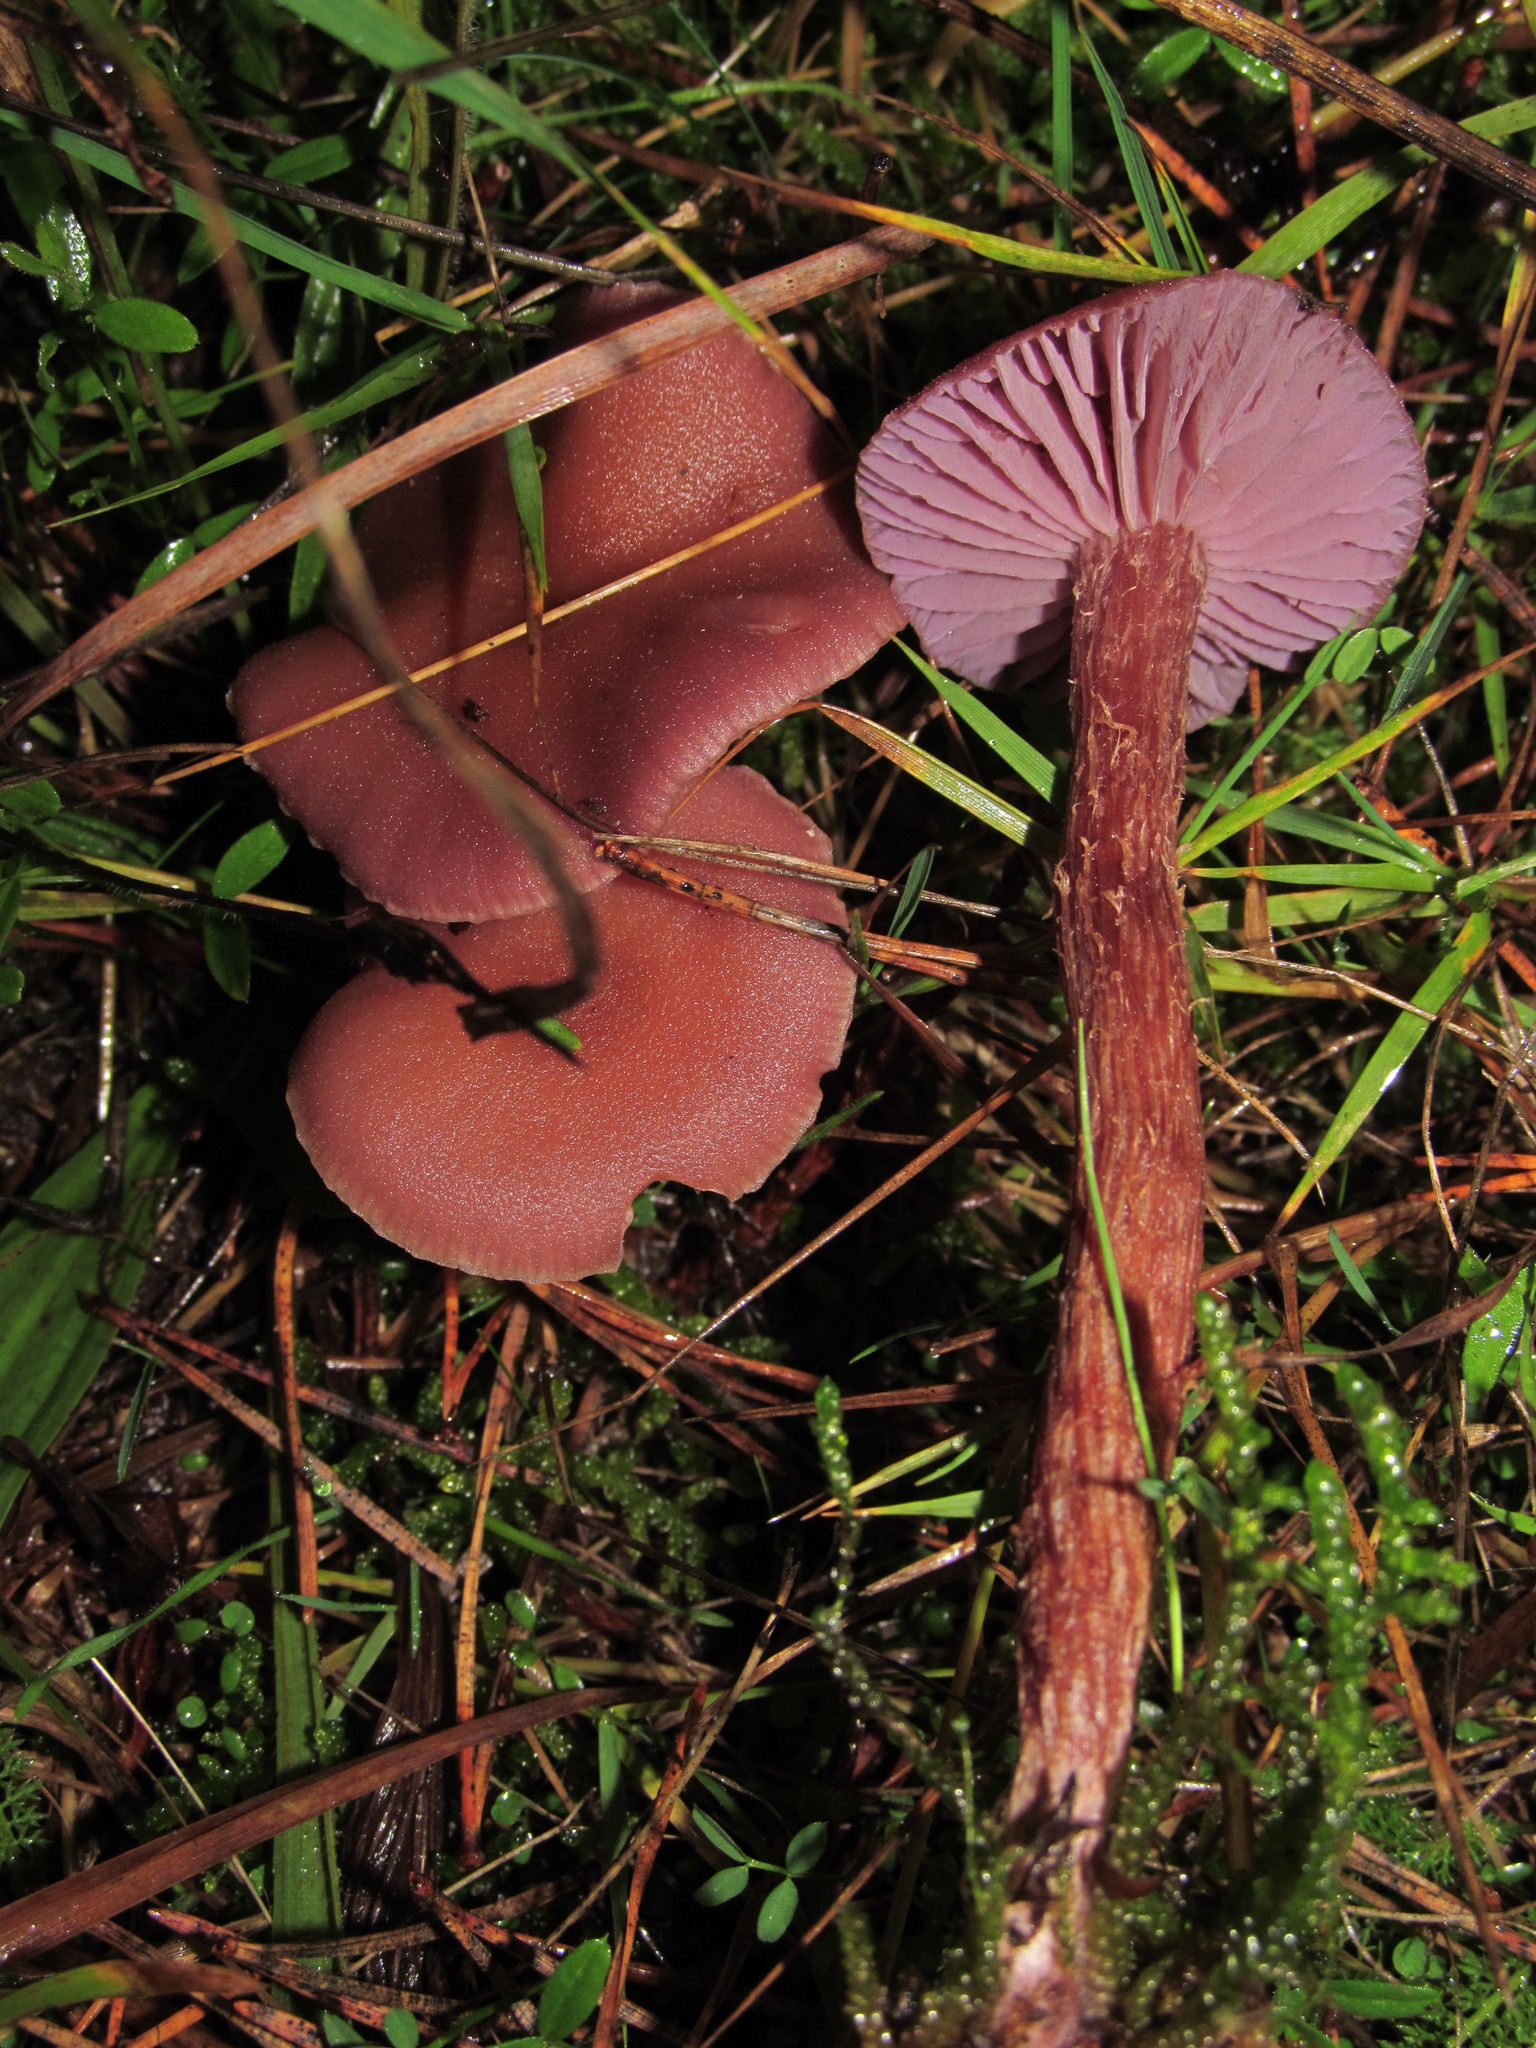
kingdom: Fungi
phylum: Basidiomycota
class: Agaricomycetes
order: Agaricales
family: Hydnangiaceae
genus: Laccaria
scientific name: Laccaria amethysteo-occidentalis
